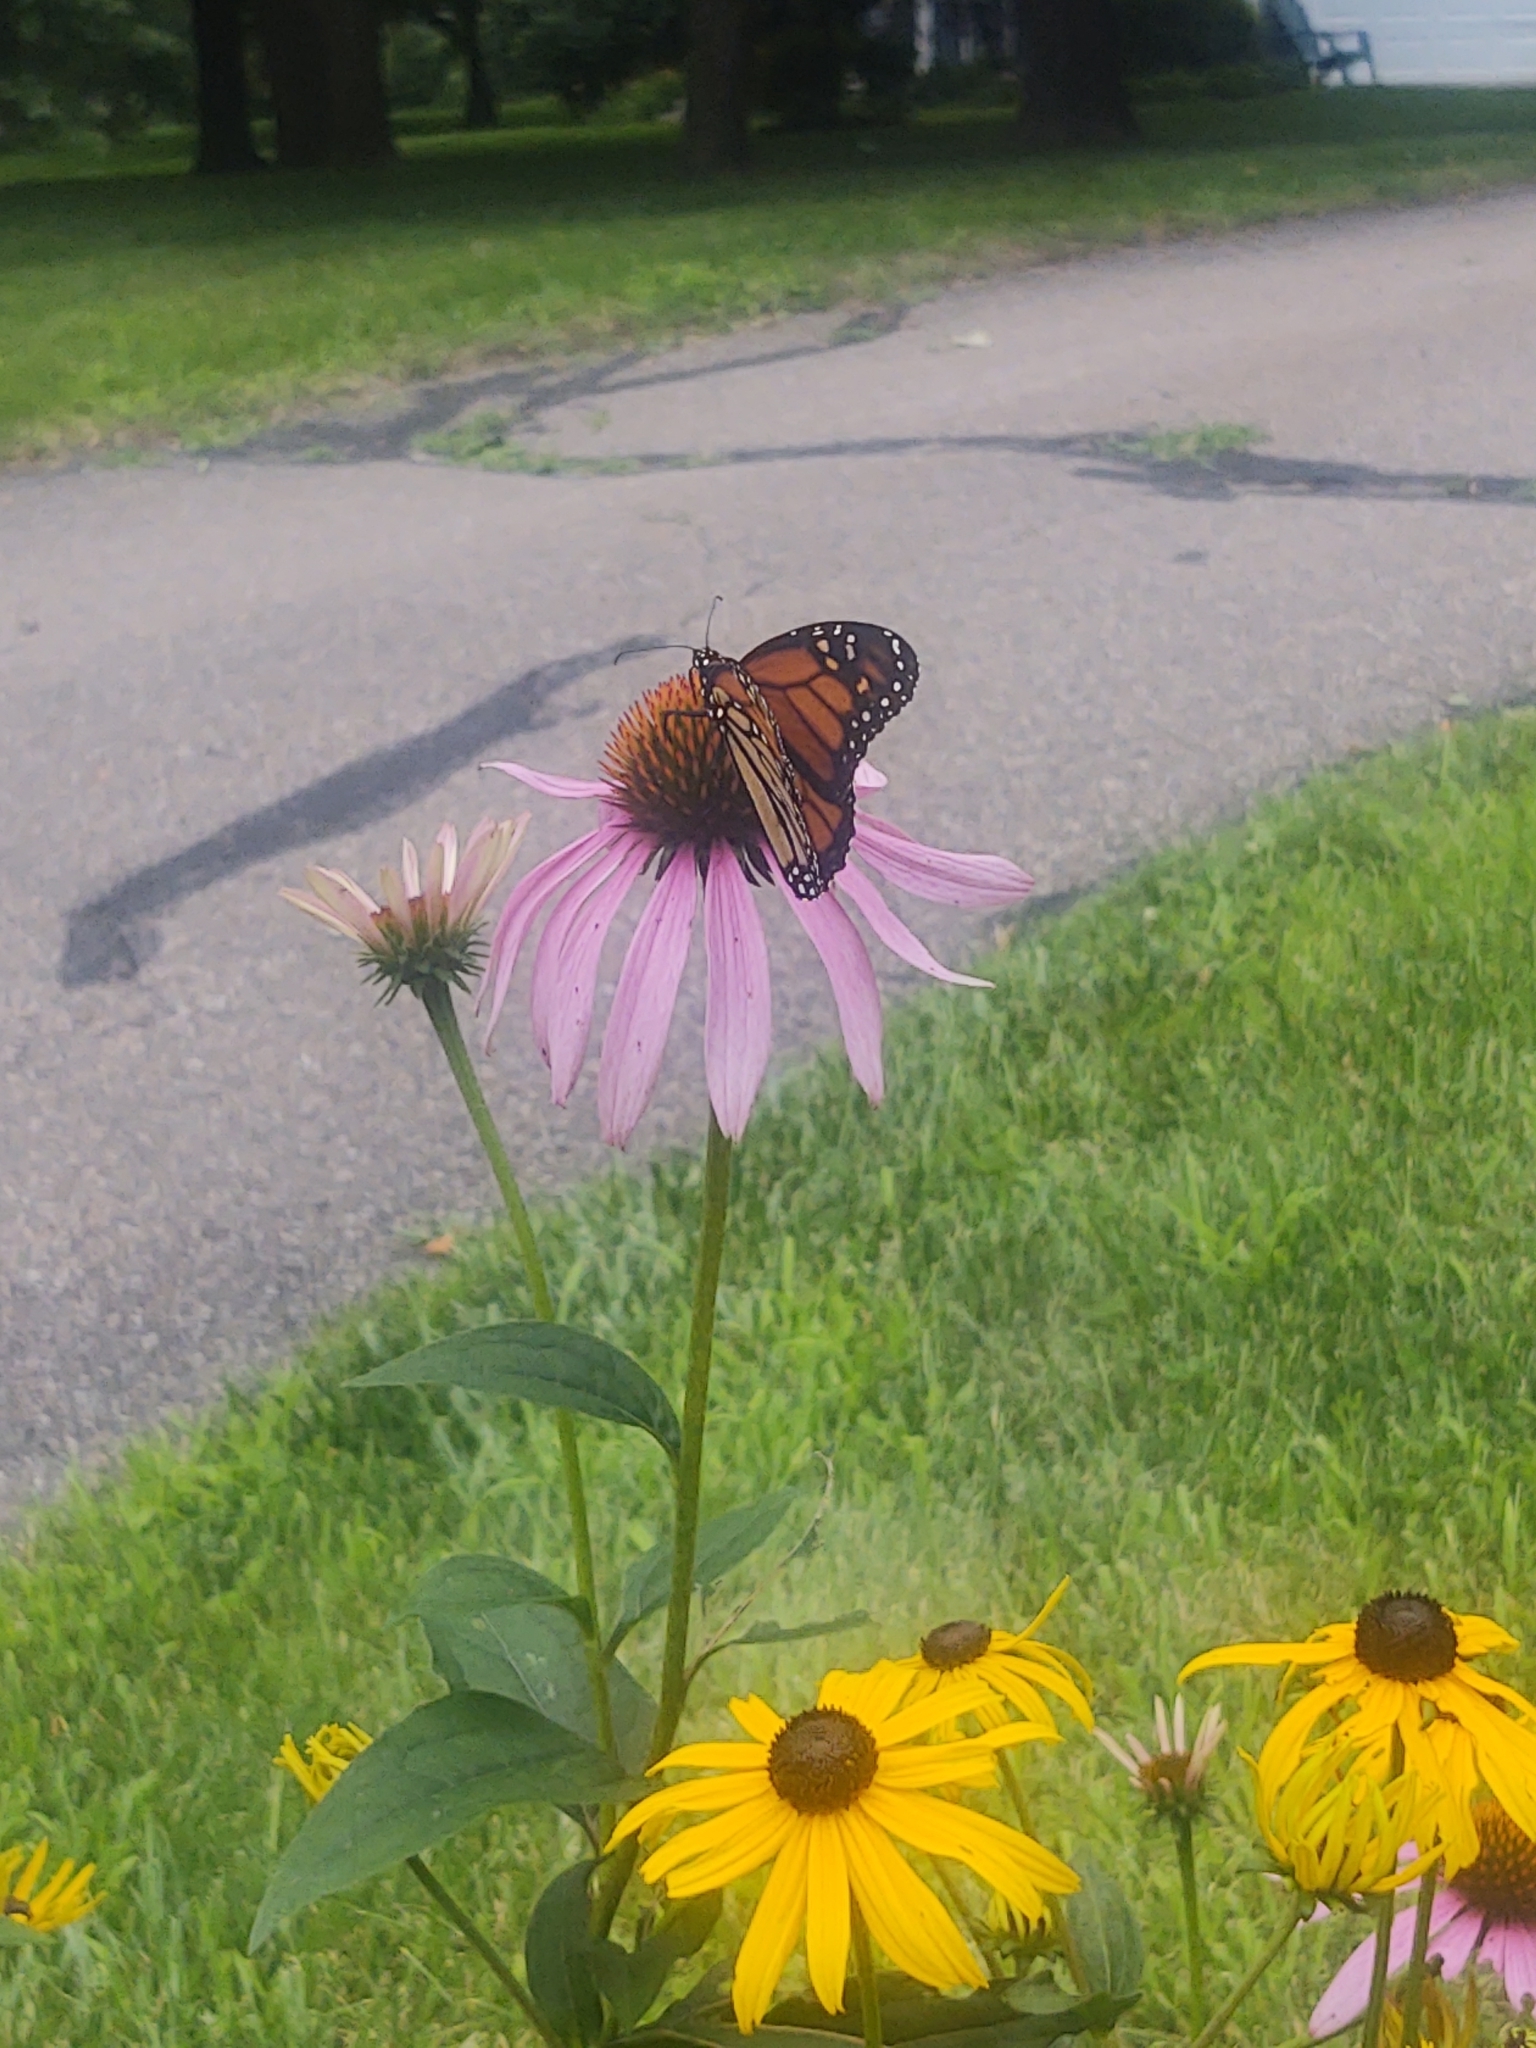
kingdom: Animalia
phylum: Arthropoda
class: Insecta
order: Lepidoptera
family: Nymphalidae
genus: Danaus
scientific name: Danaus plexippus
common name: Monarch
